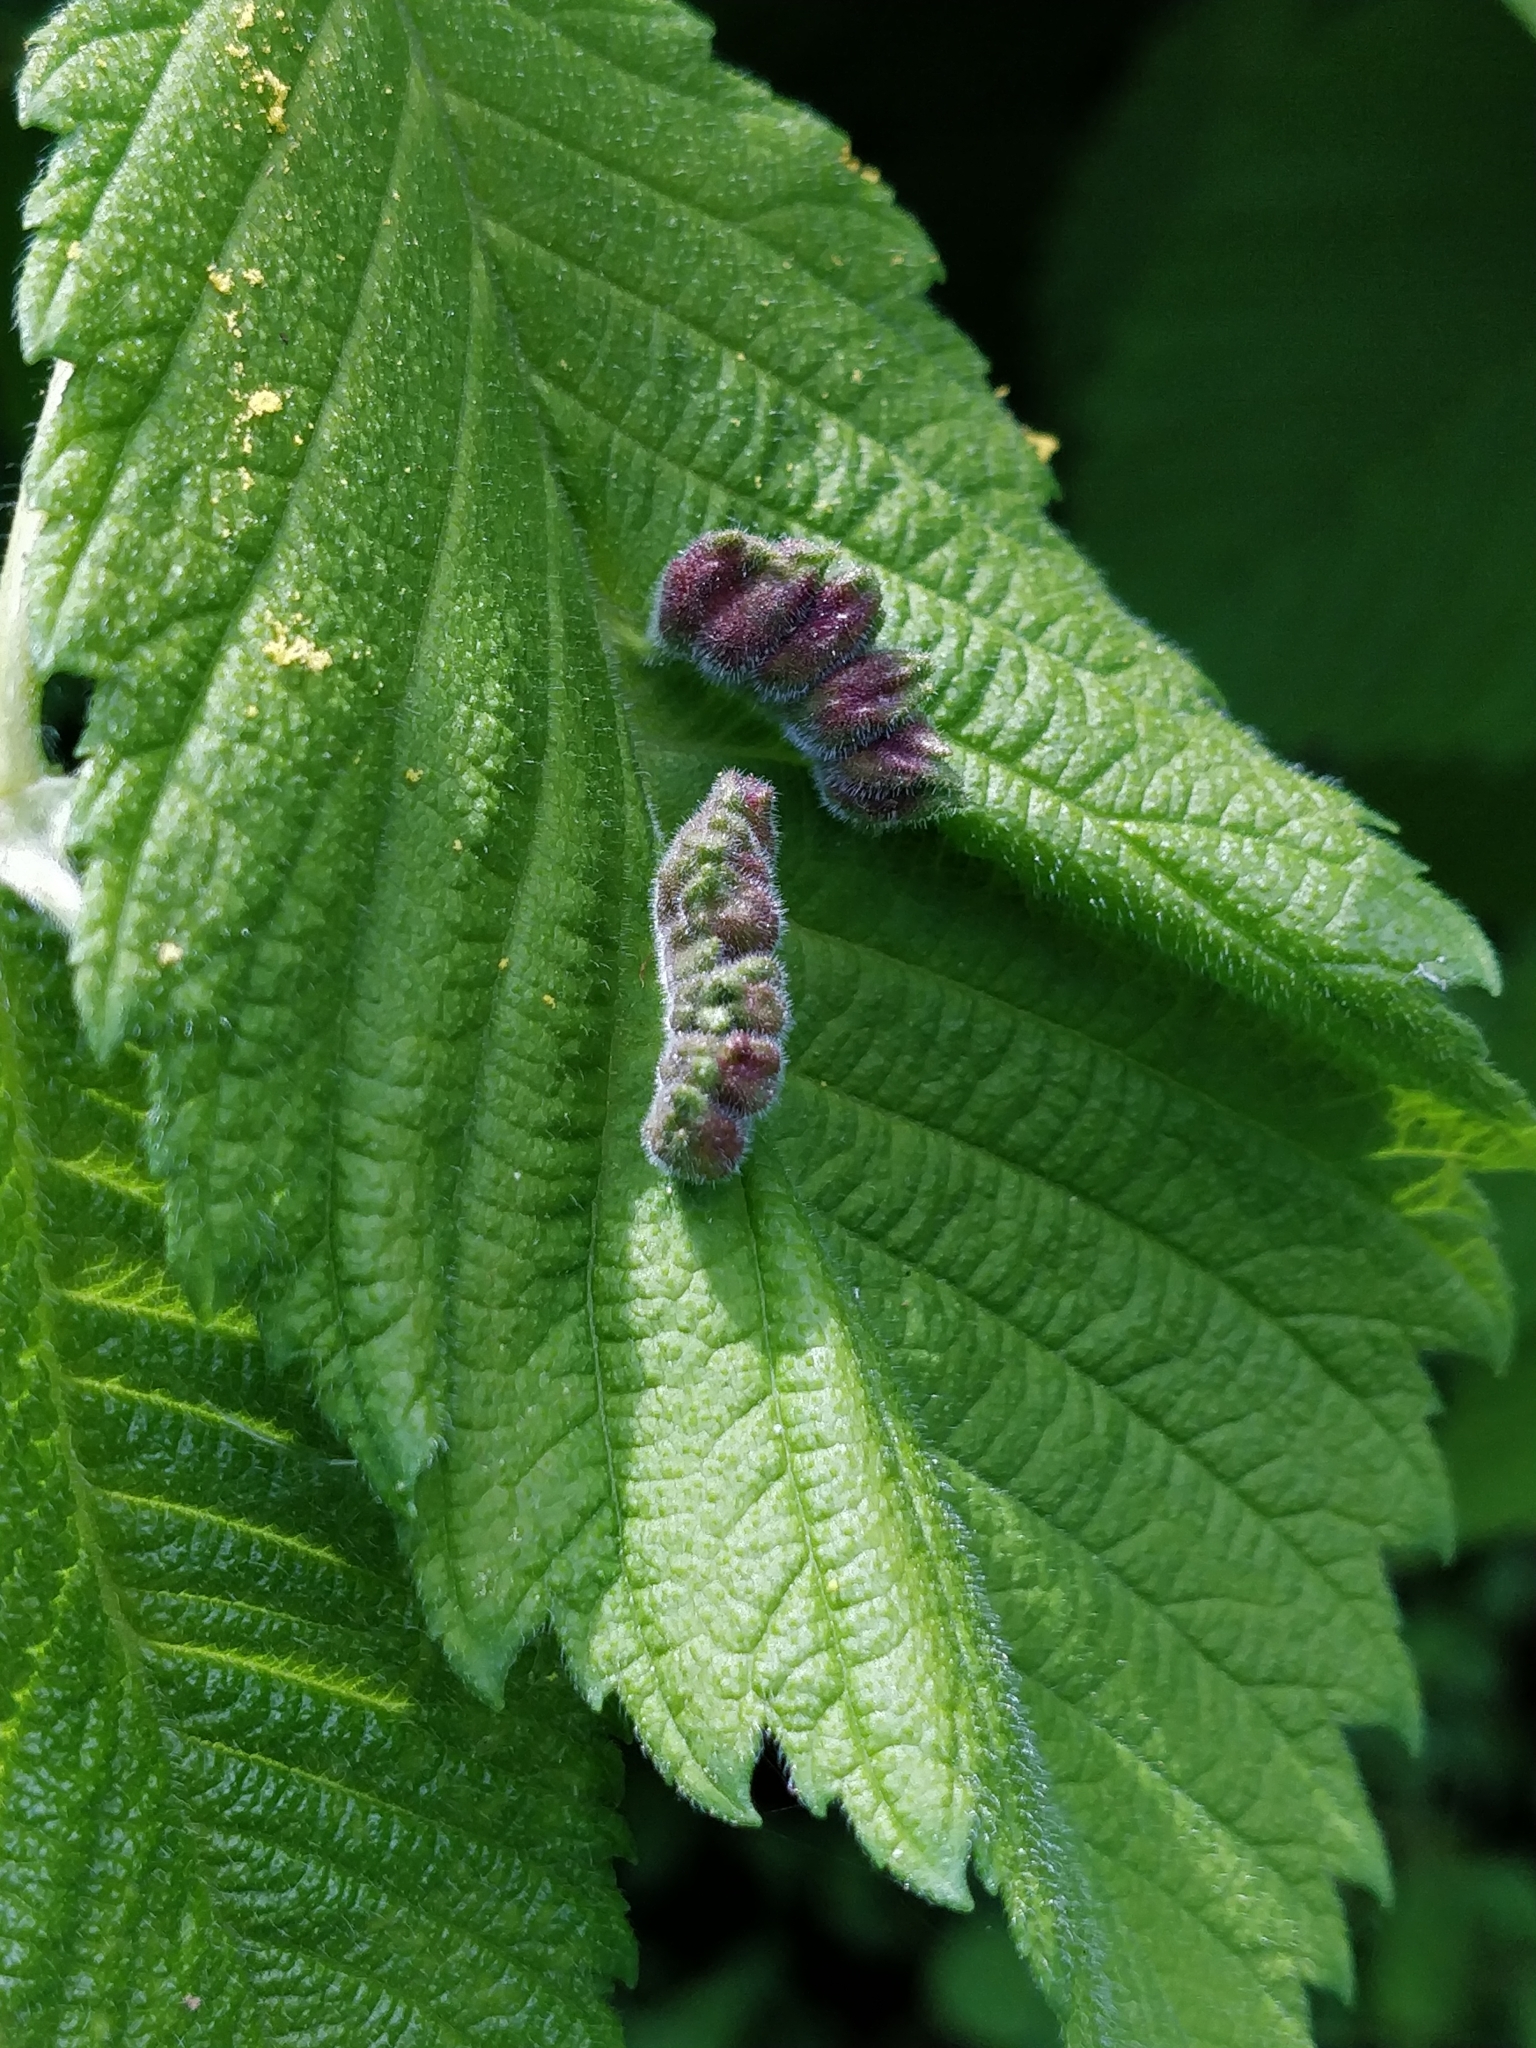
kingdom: Animalia
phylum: Arthropoda
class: Insecta
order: Hemiptera
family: Aphididae
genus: Colopha
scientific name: Colopha ulmicola
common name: Elm cockscombgall aphid
